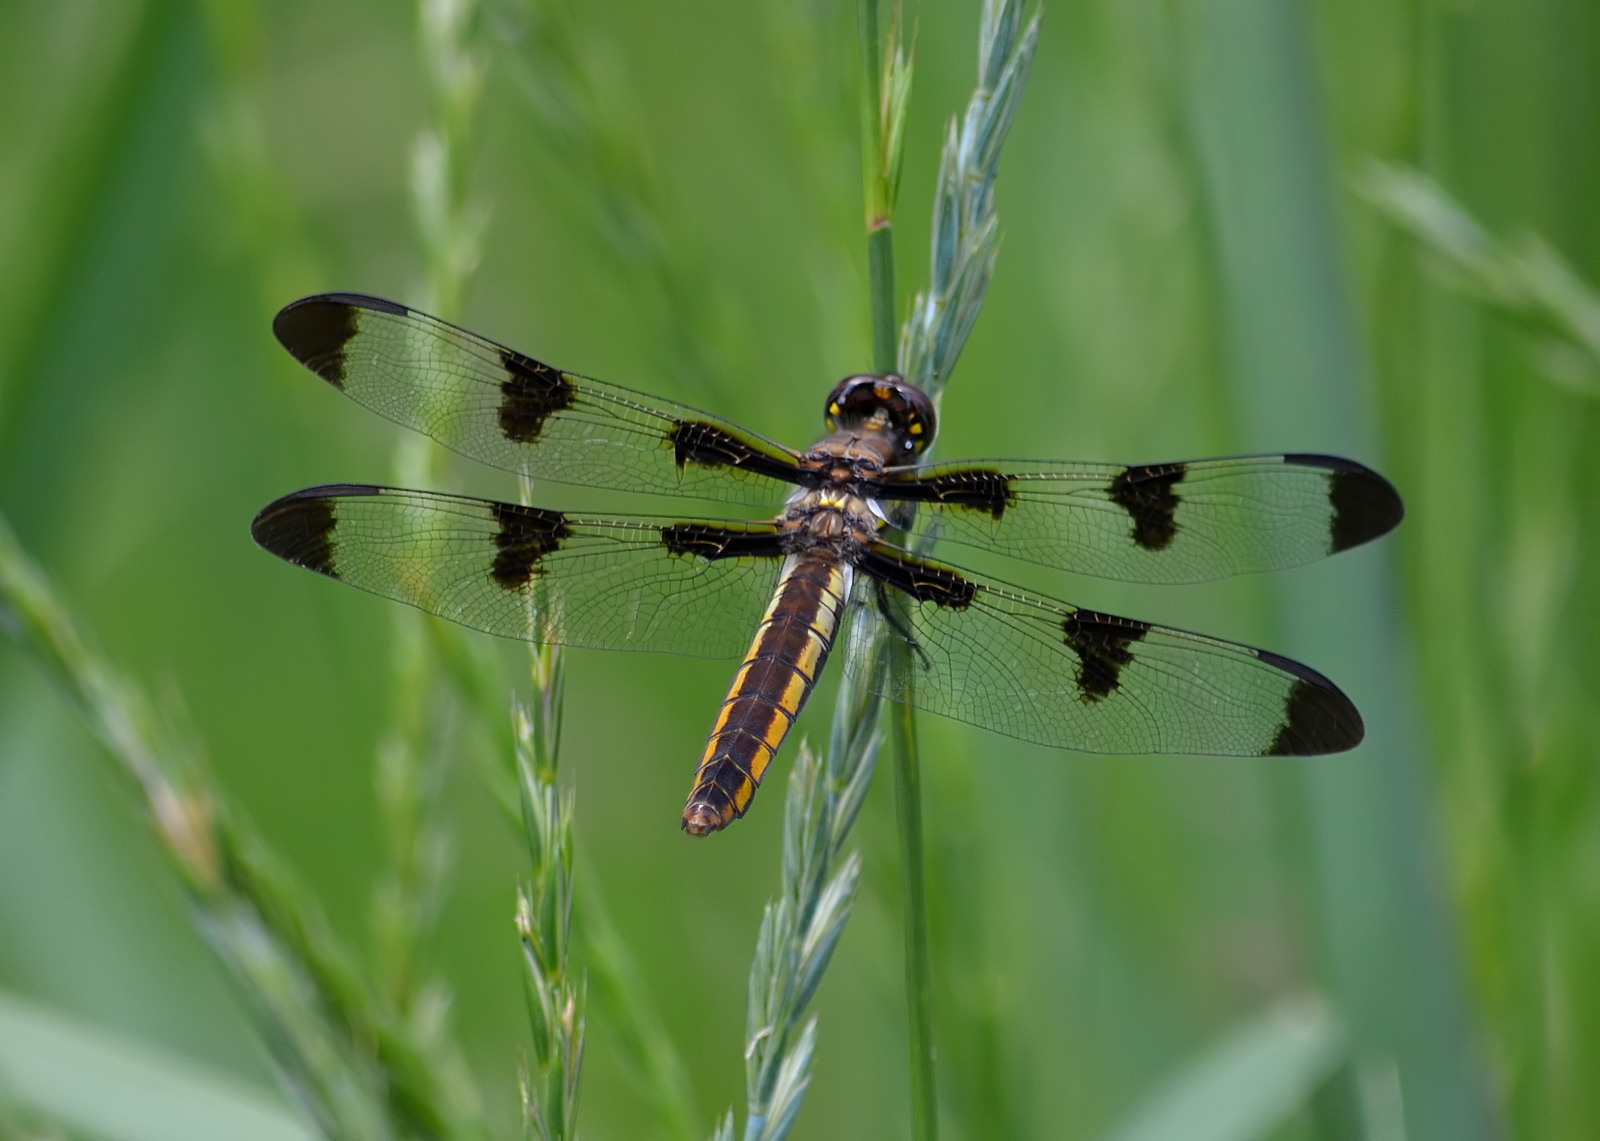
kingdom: Animalia
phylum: Arthropoda
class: Insecta
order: Odonata
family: Libellulidae
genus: Libellula
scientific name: Libellula pulchella
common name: Twelve-spotted skimmer
